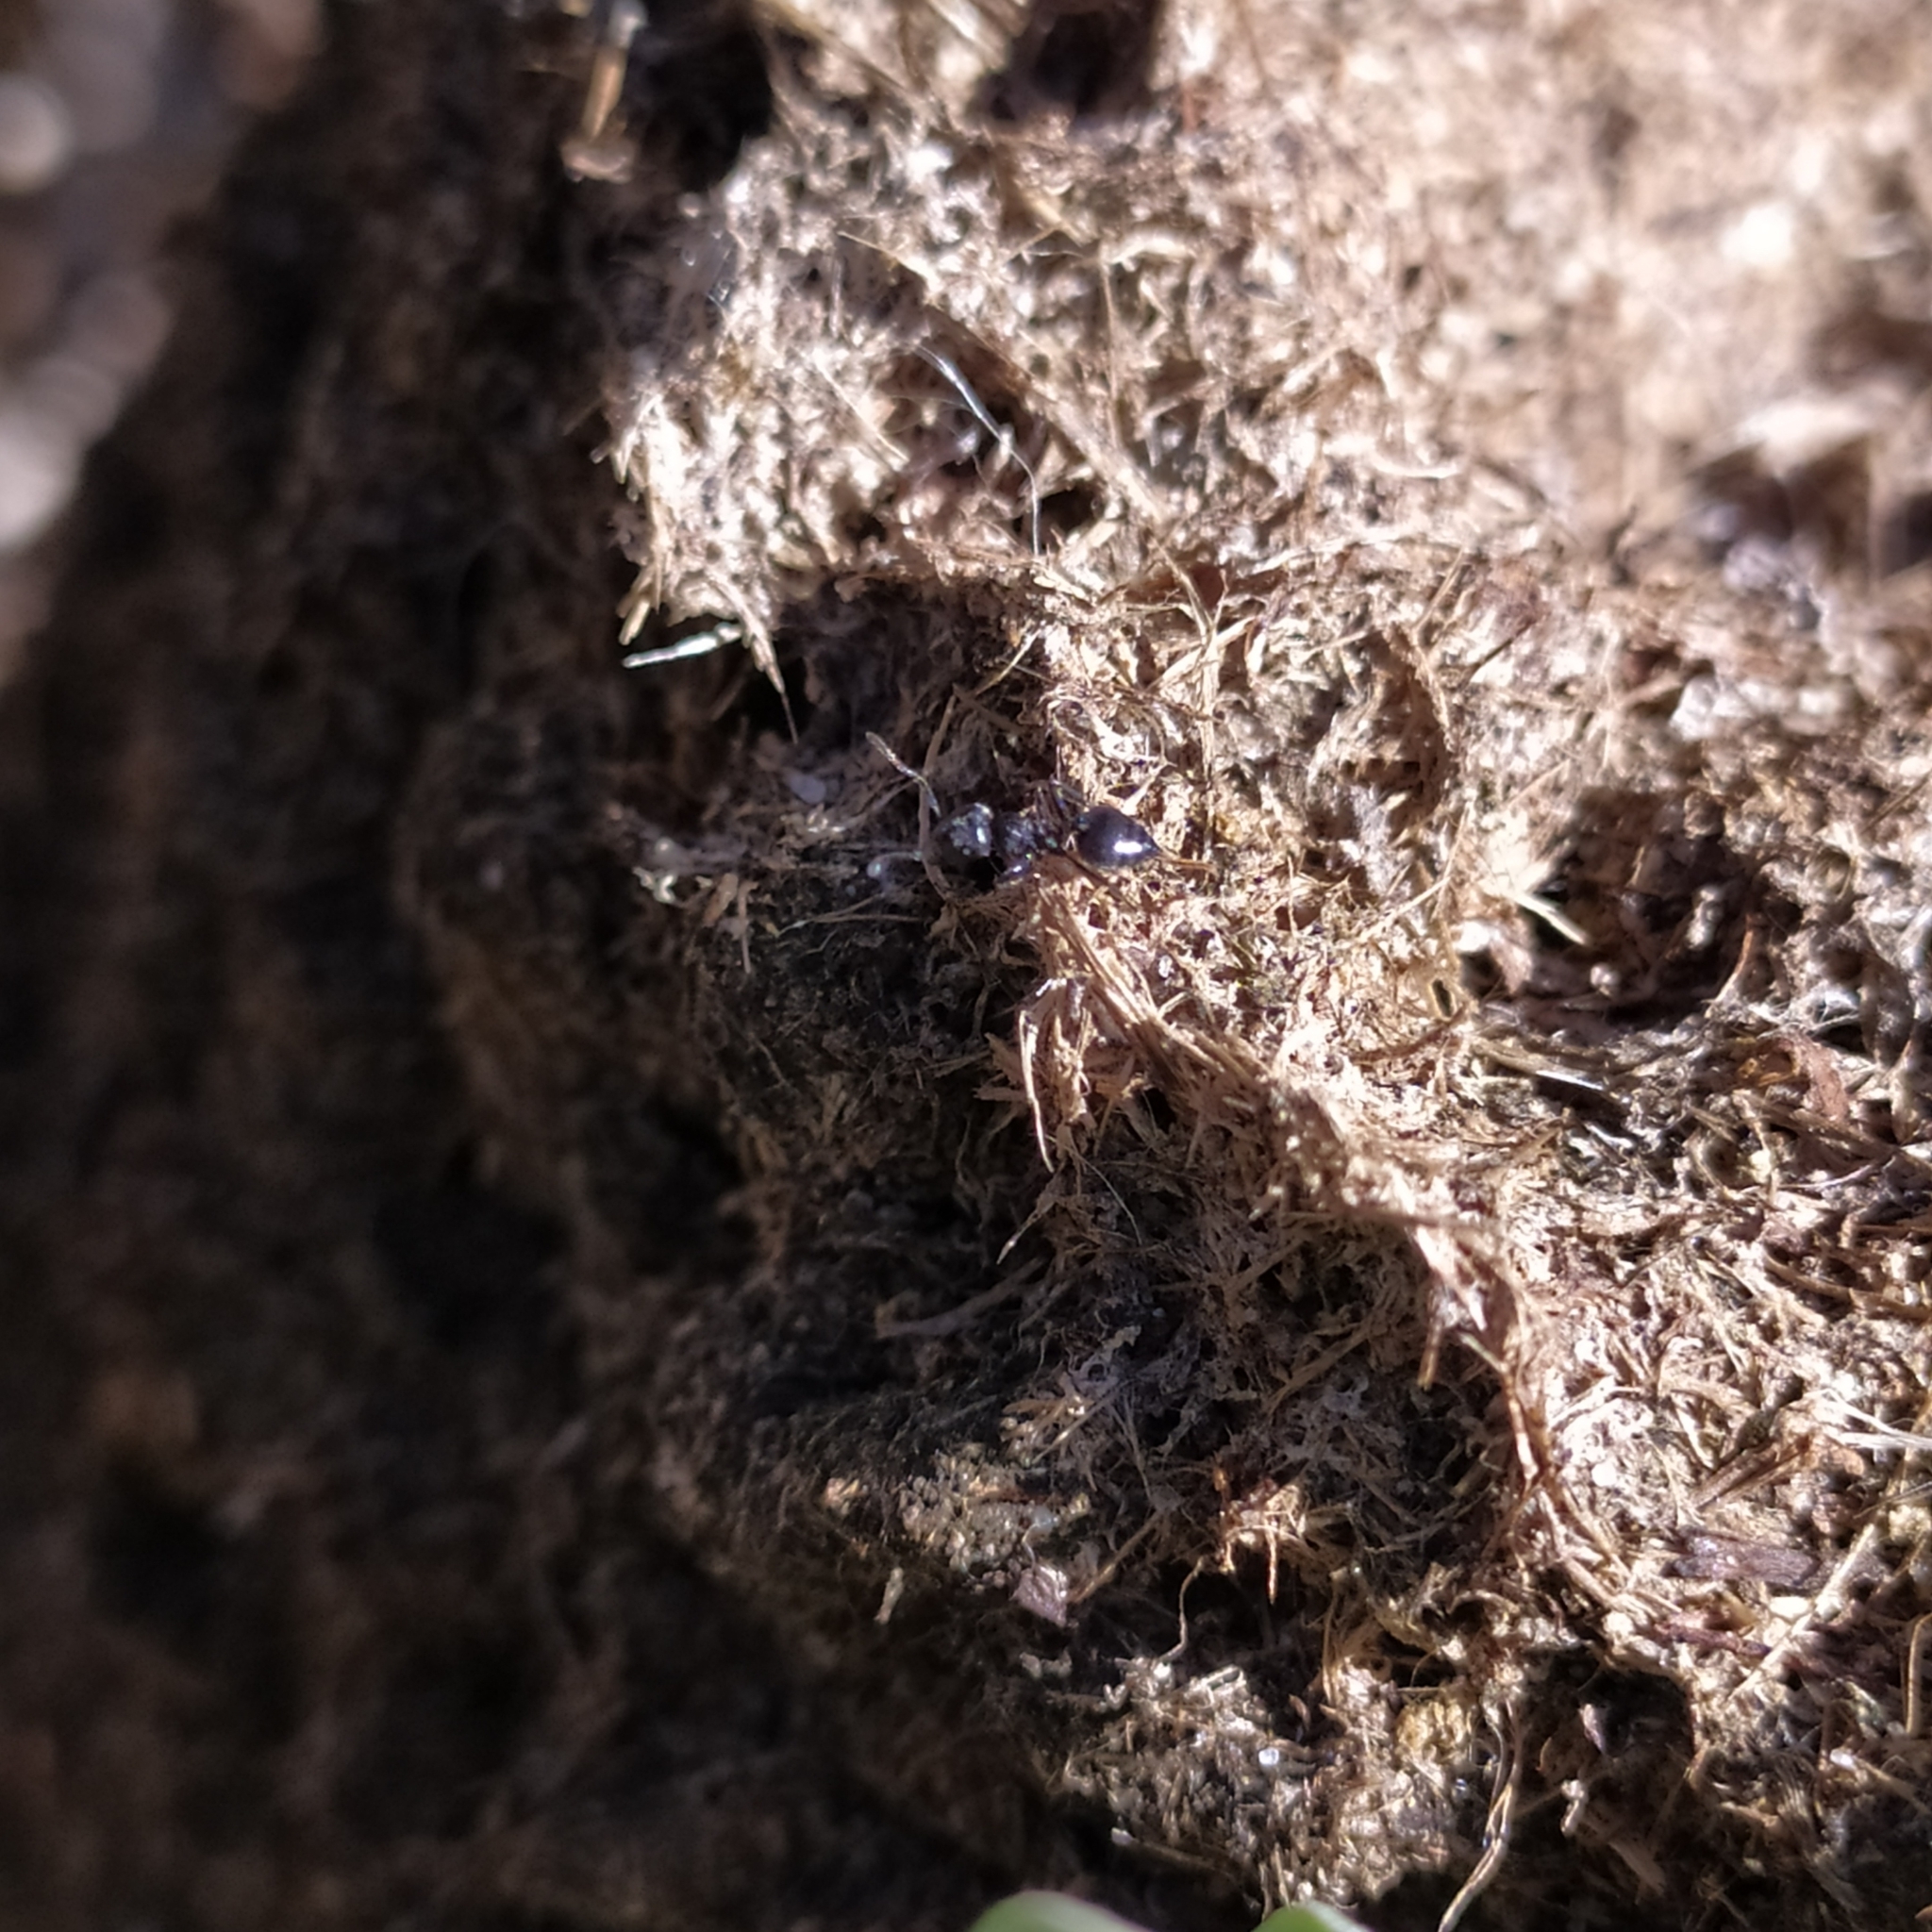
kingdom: Animalia
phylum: Arthropoda
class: Insecta
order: Hymenoptera
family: Formicidae
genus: Crematogaster
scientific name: Crematogaster peringueyi
